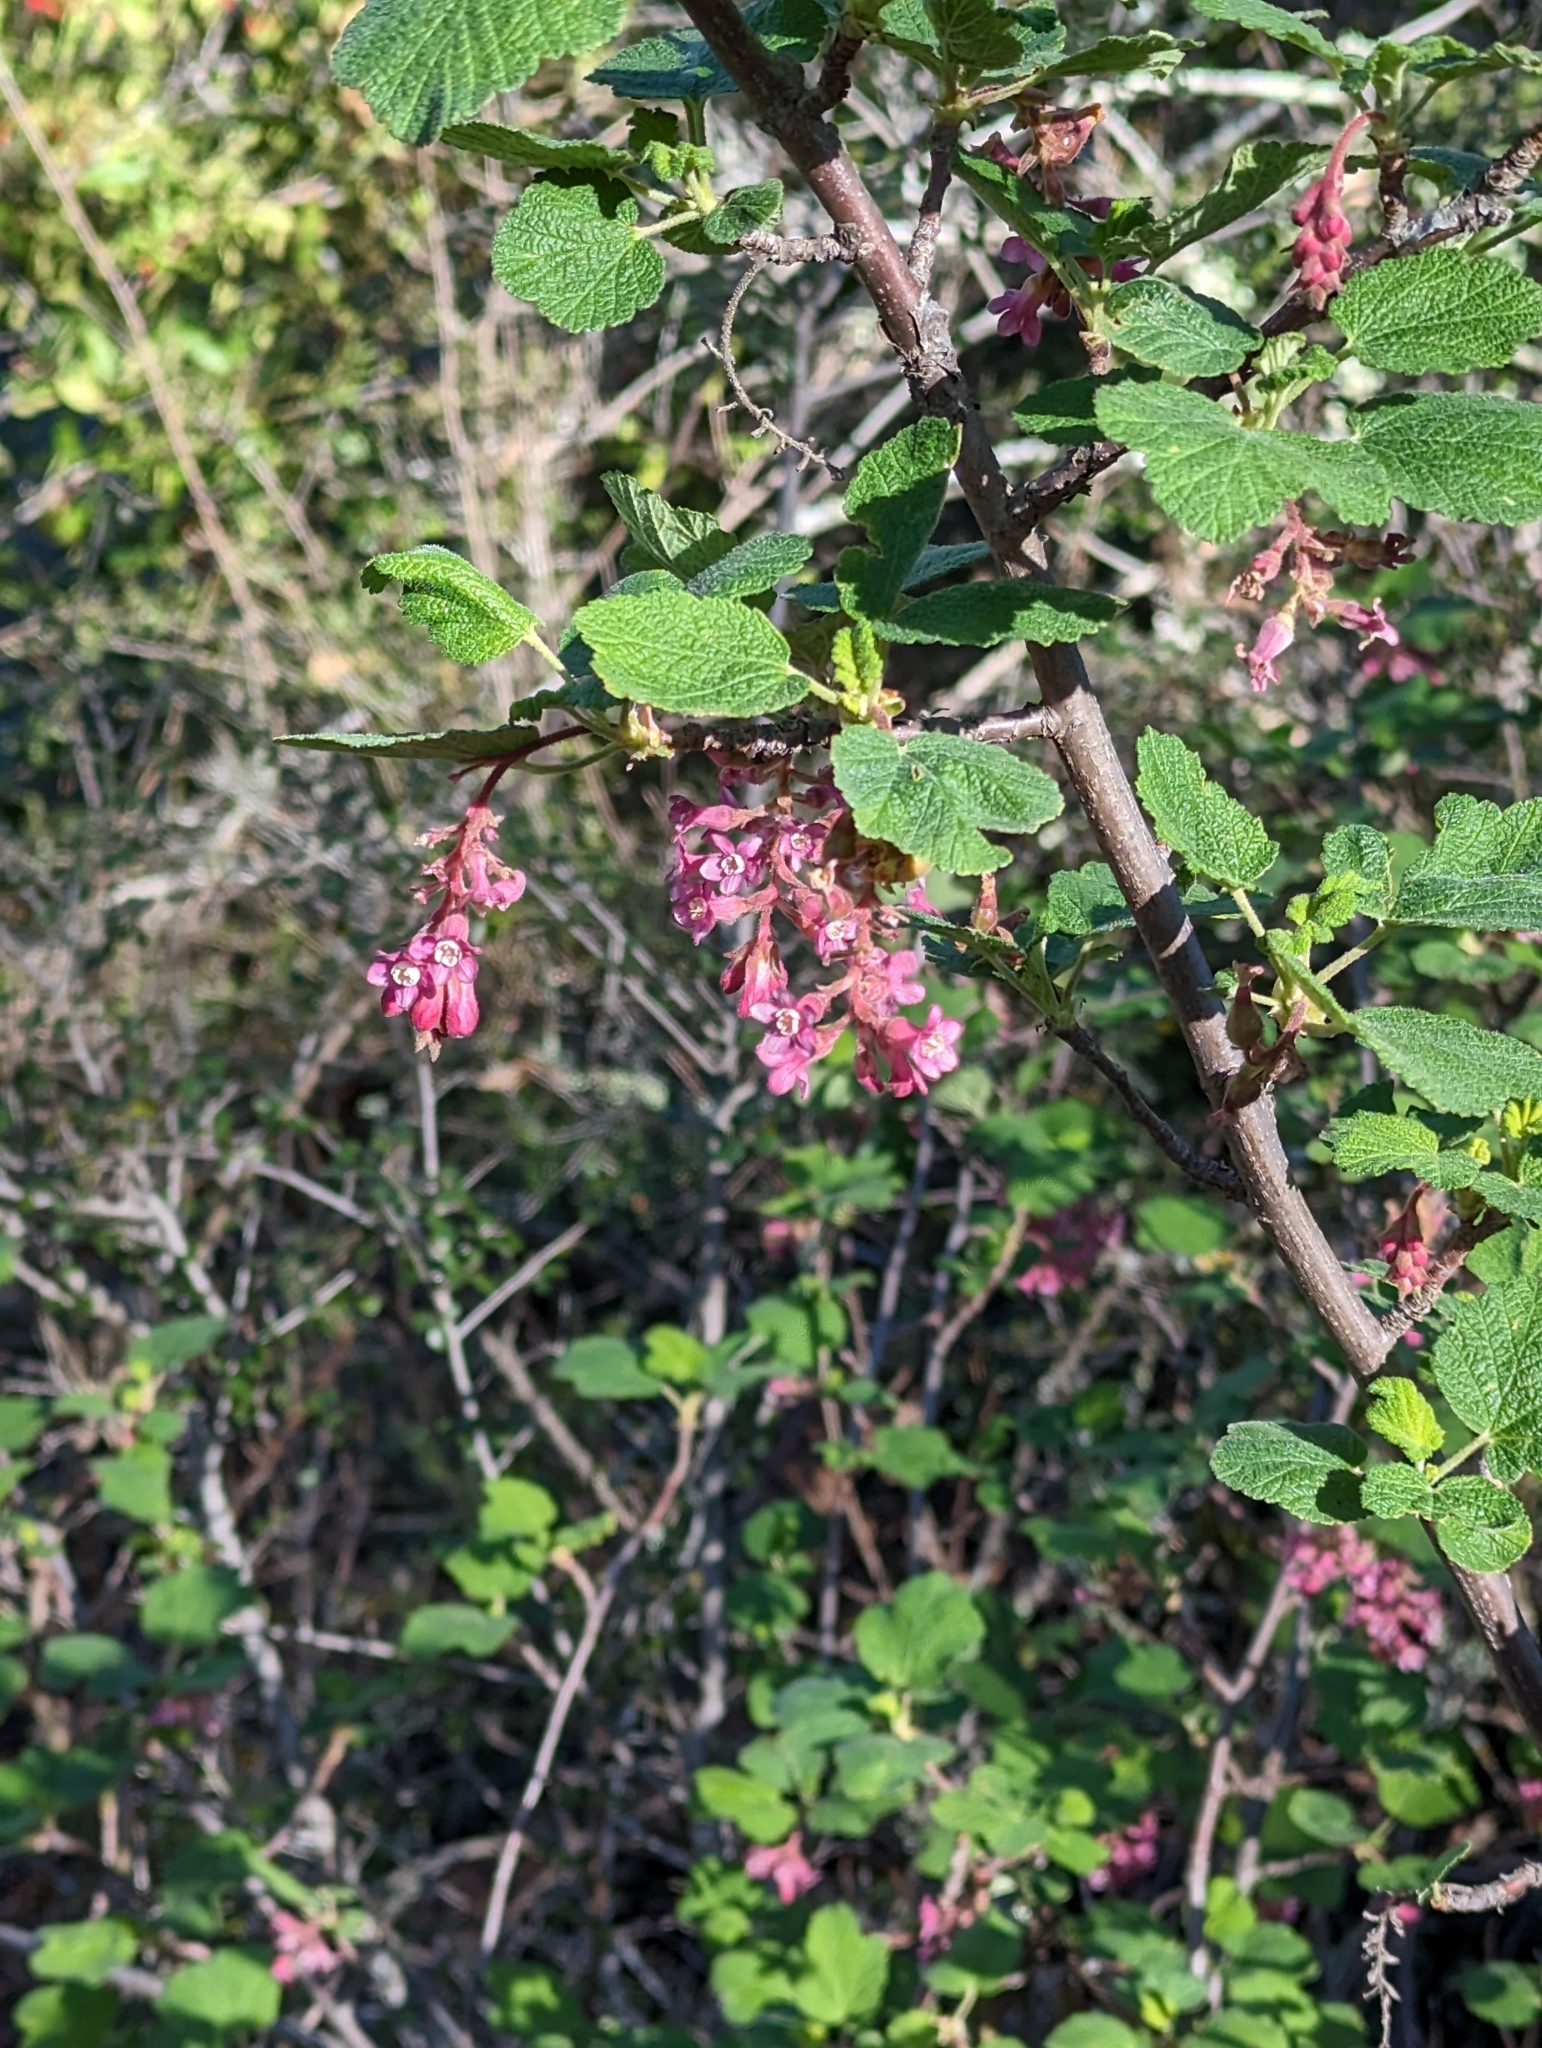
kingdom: Plantae
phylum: Tracheophyta
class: Magnoliopsida
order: Saxifragales
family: Grossulariaceae
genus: Ribes
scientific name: Ribes malvaceum
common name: Chaparral currant
